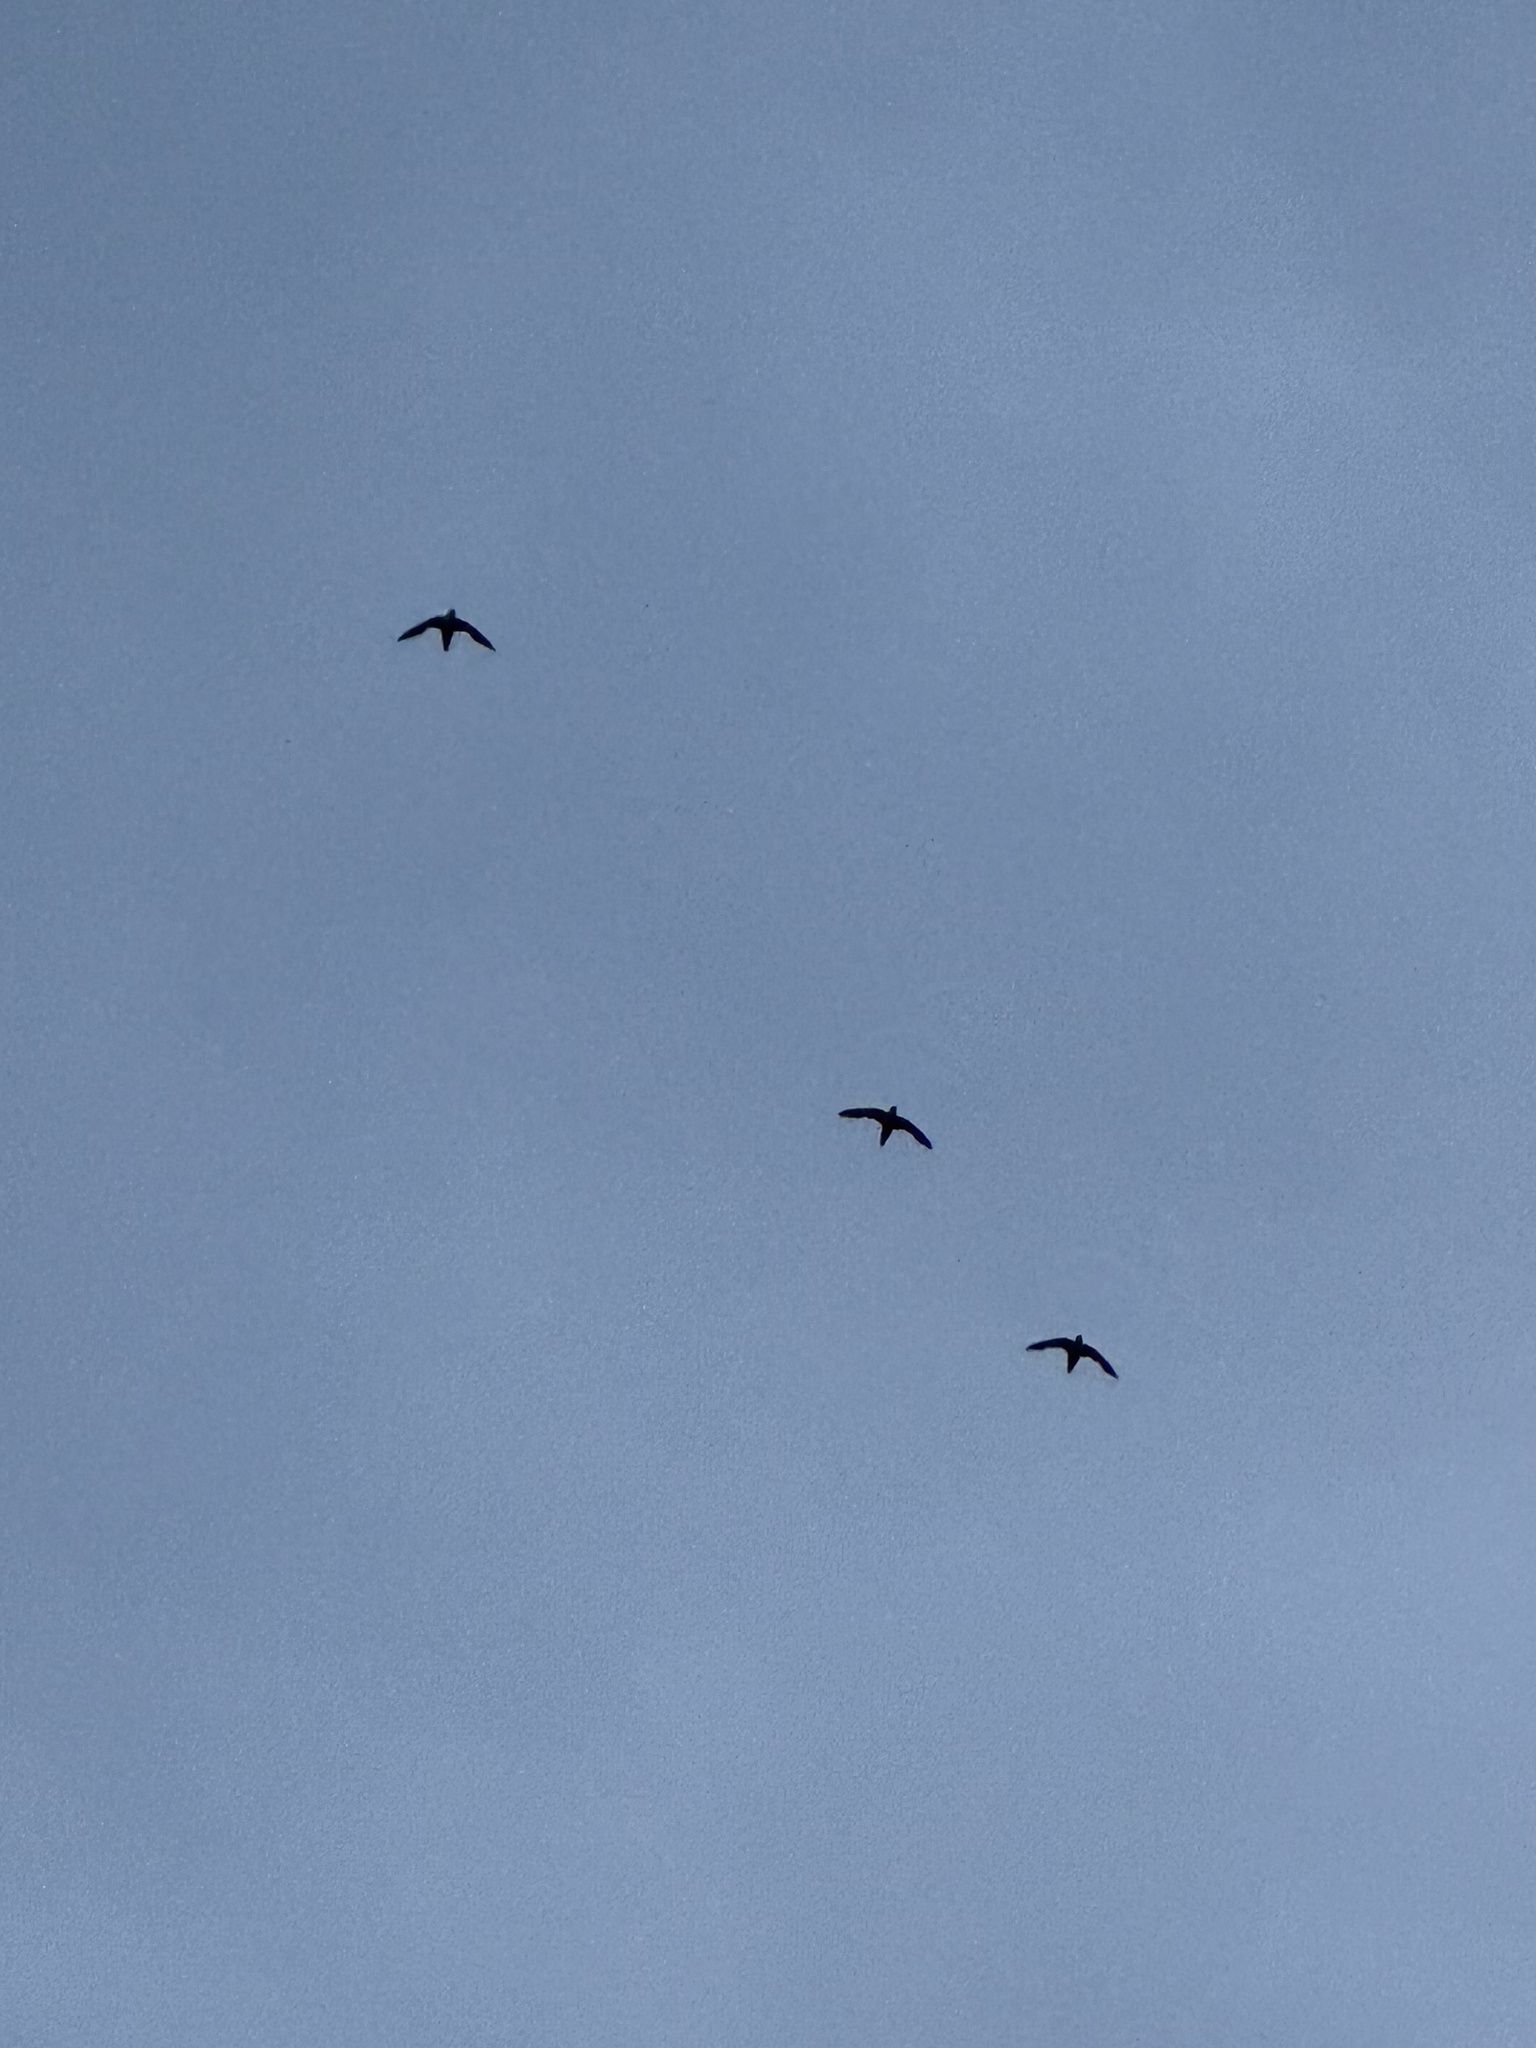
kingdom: Animalia
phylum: Chordata
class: Aves
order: Apodiformes
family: Apodidae
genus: Chaetura
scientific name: Chaetura pelagica
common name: Chimney swift
